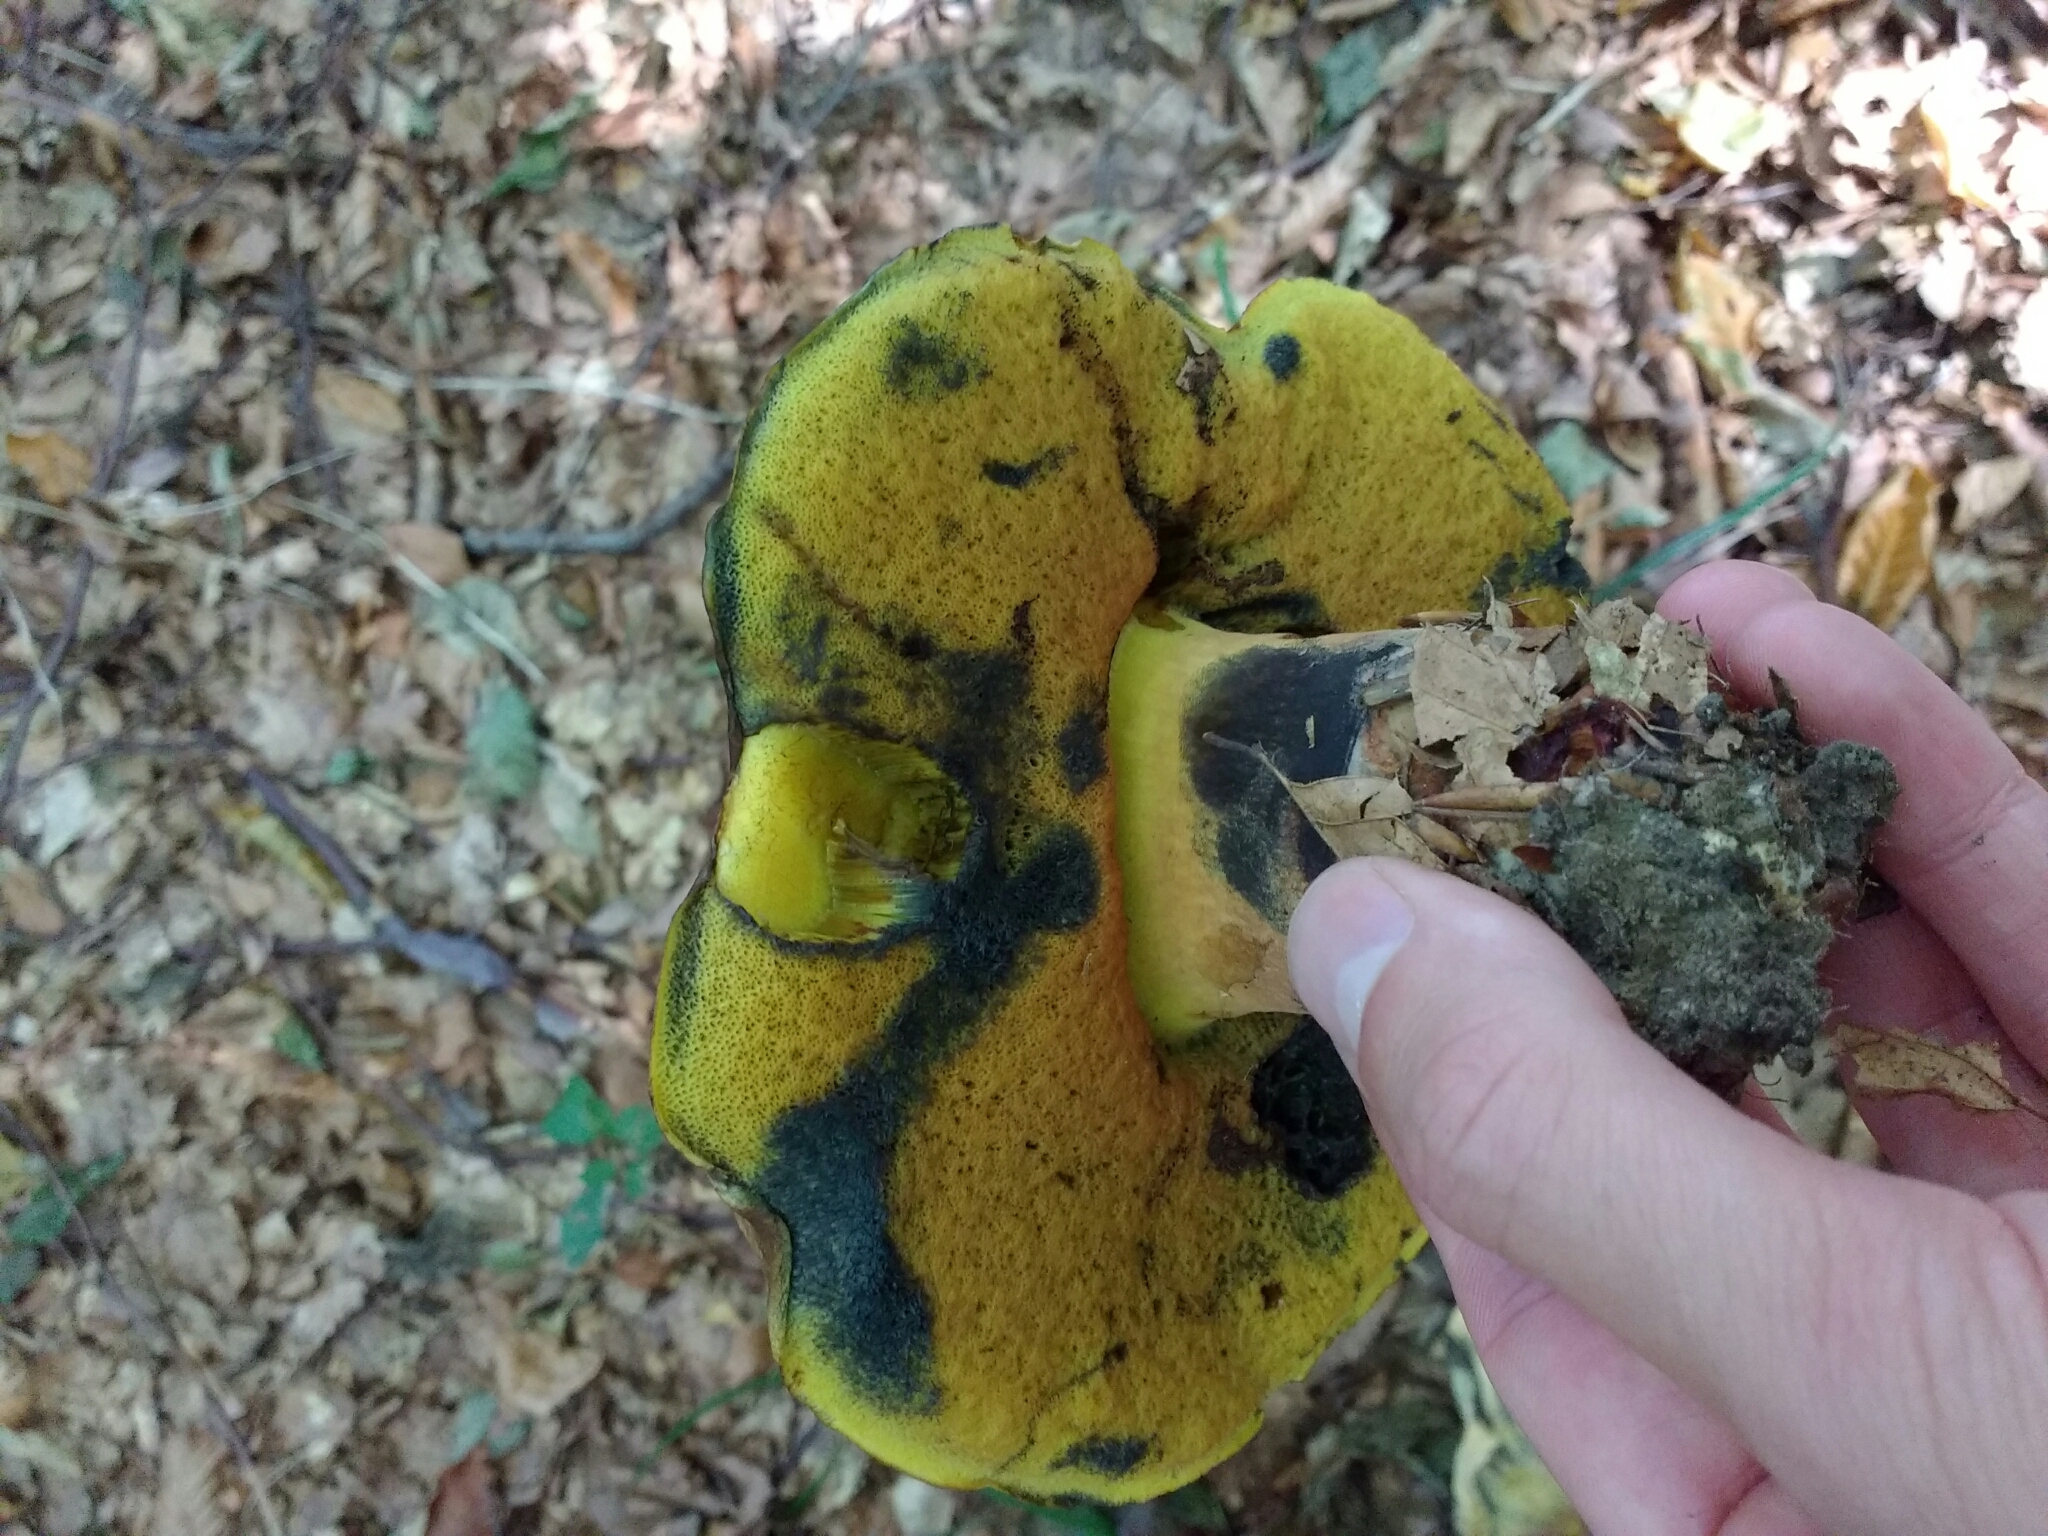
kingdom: Fungi
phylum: Basidiomycota
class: Agaricomycetes
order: Boletales
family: Boletaceae
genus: Cyanoboletus
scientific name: Cyanoboletus pulverulentus
